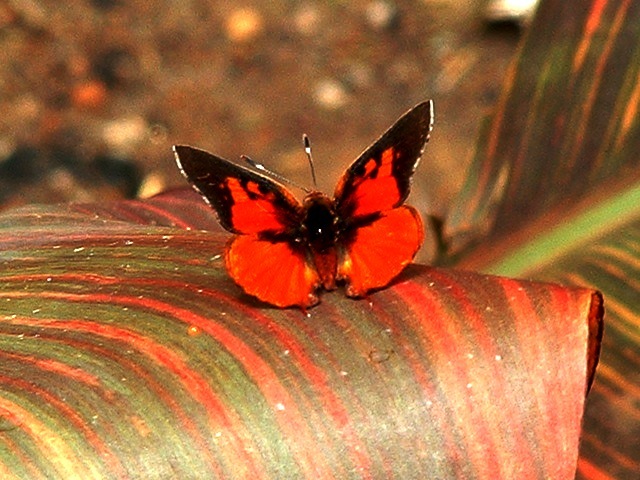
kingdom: Animalia
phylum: Arthropoda
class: Insecta
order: Lepidoptera
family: Lycaenidae
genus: Axiocerses
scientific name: Axiocerses perion
